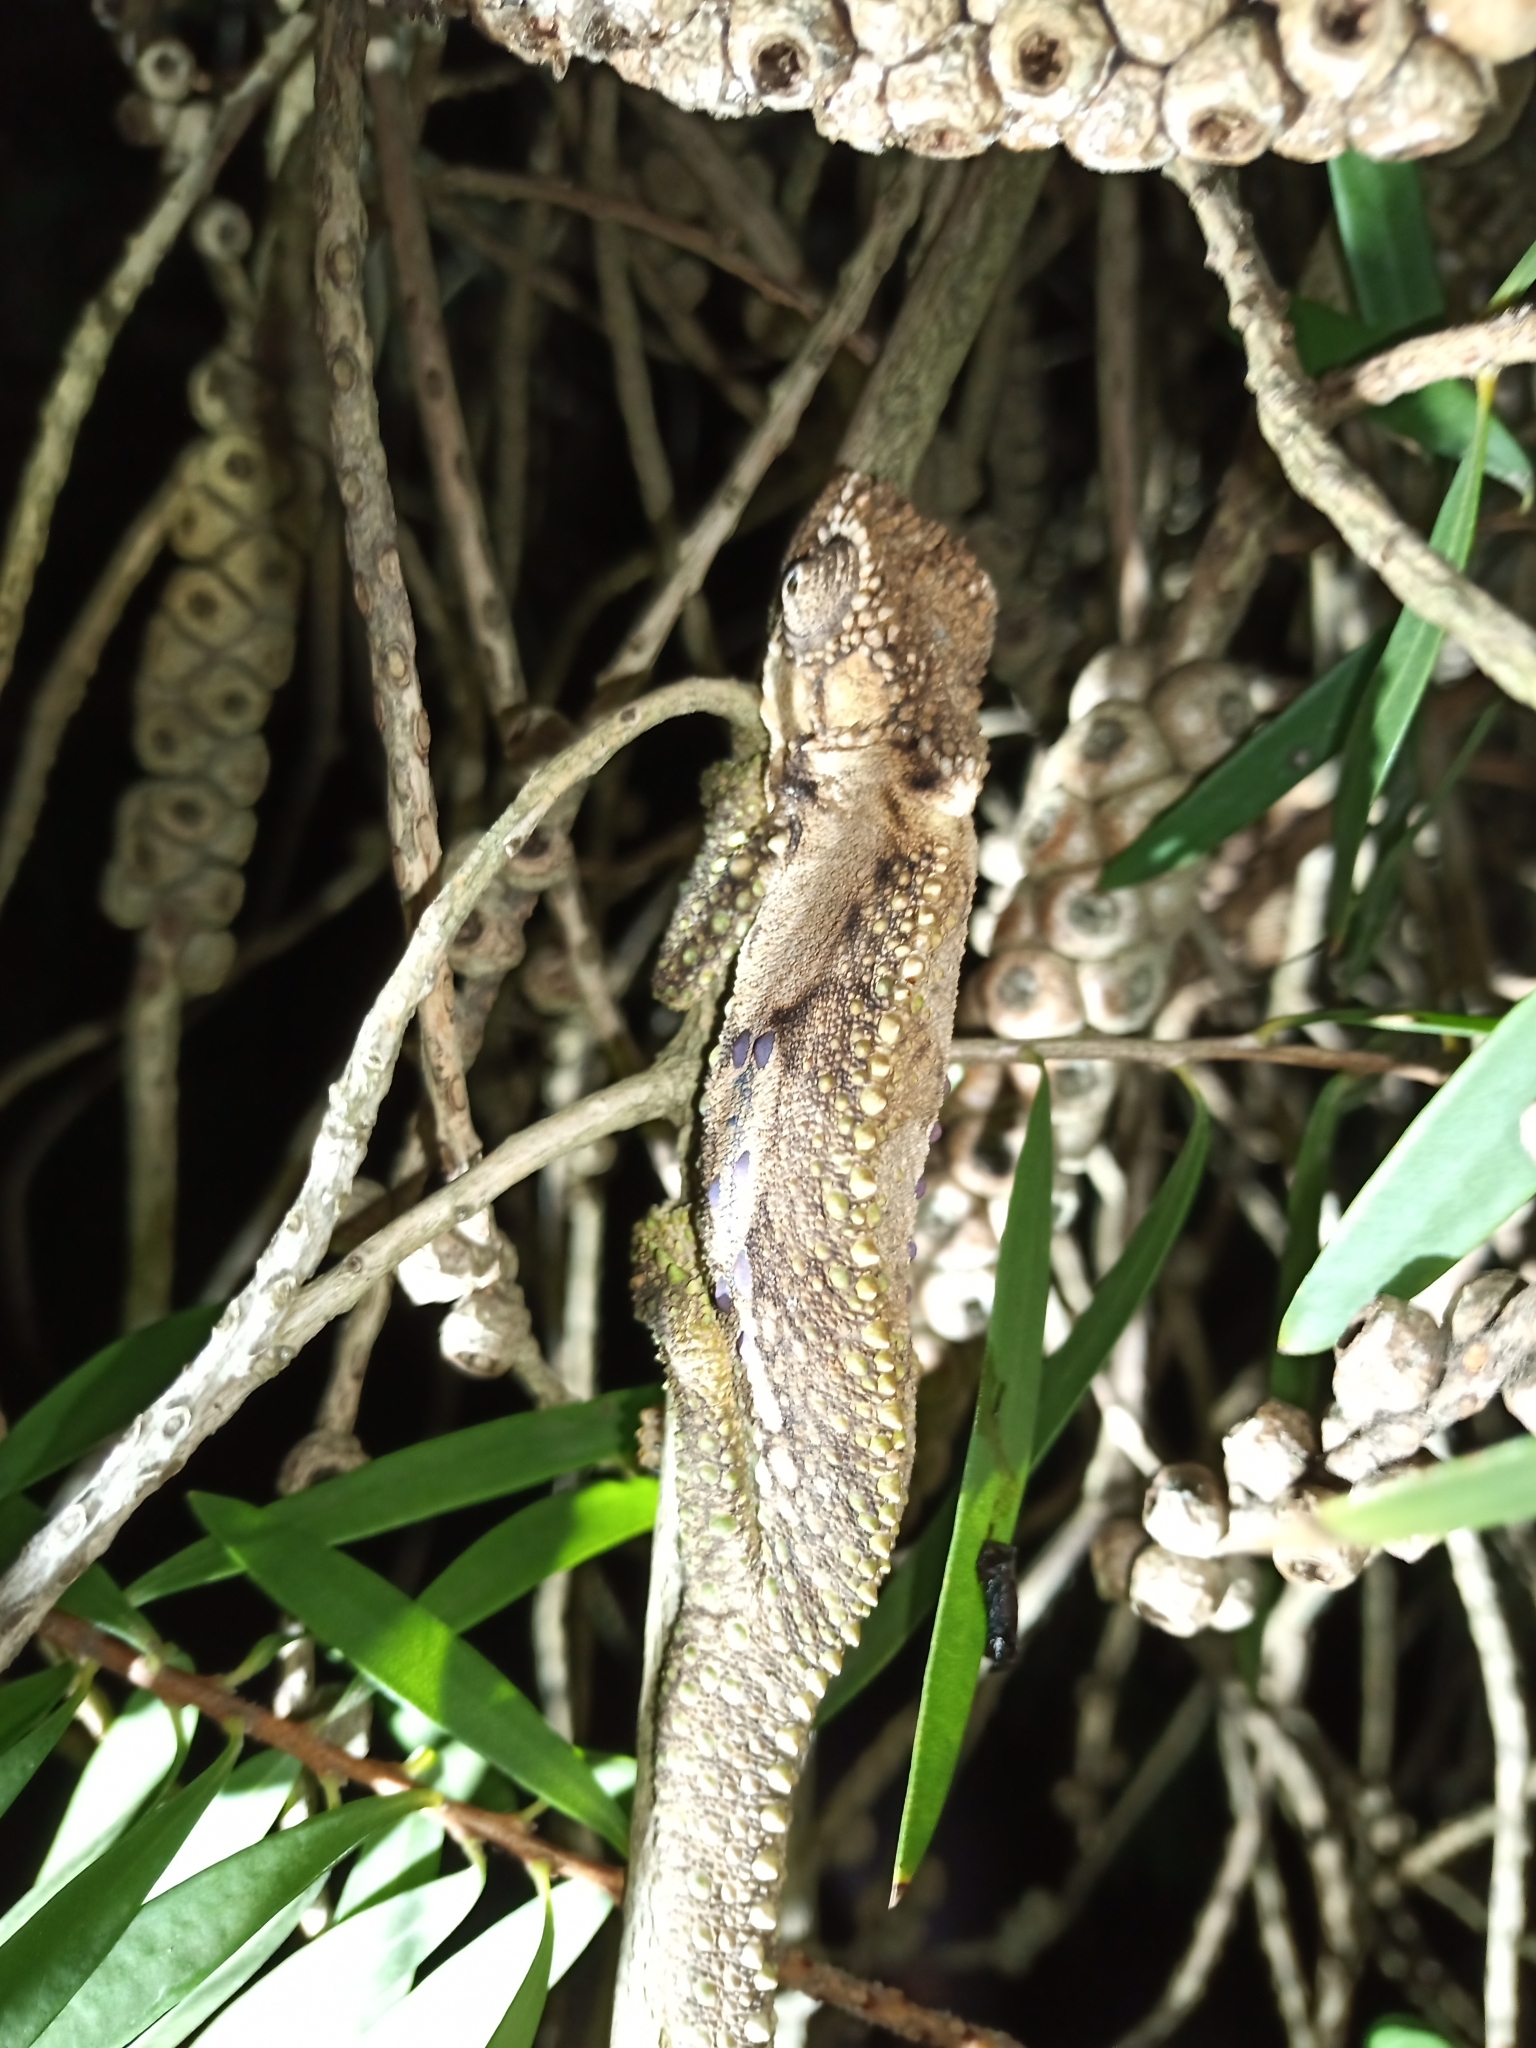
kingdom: Animalia
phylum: Chordata
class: Squamata
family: Chamaeleonidae
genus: Bradypodion
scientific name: Bradypodion ventrale
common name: Eastern cape dwarf chameleon
